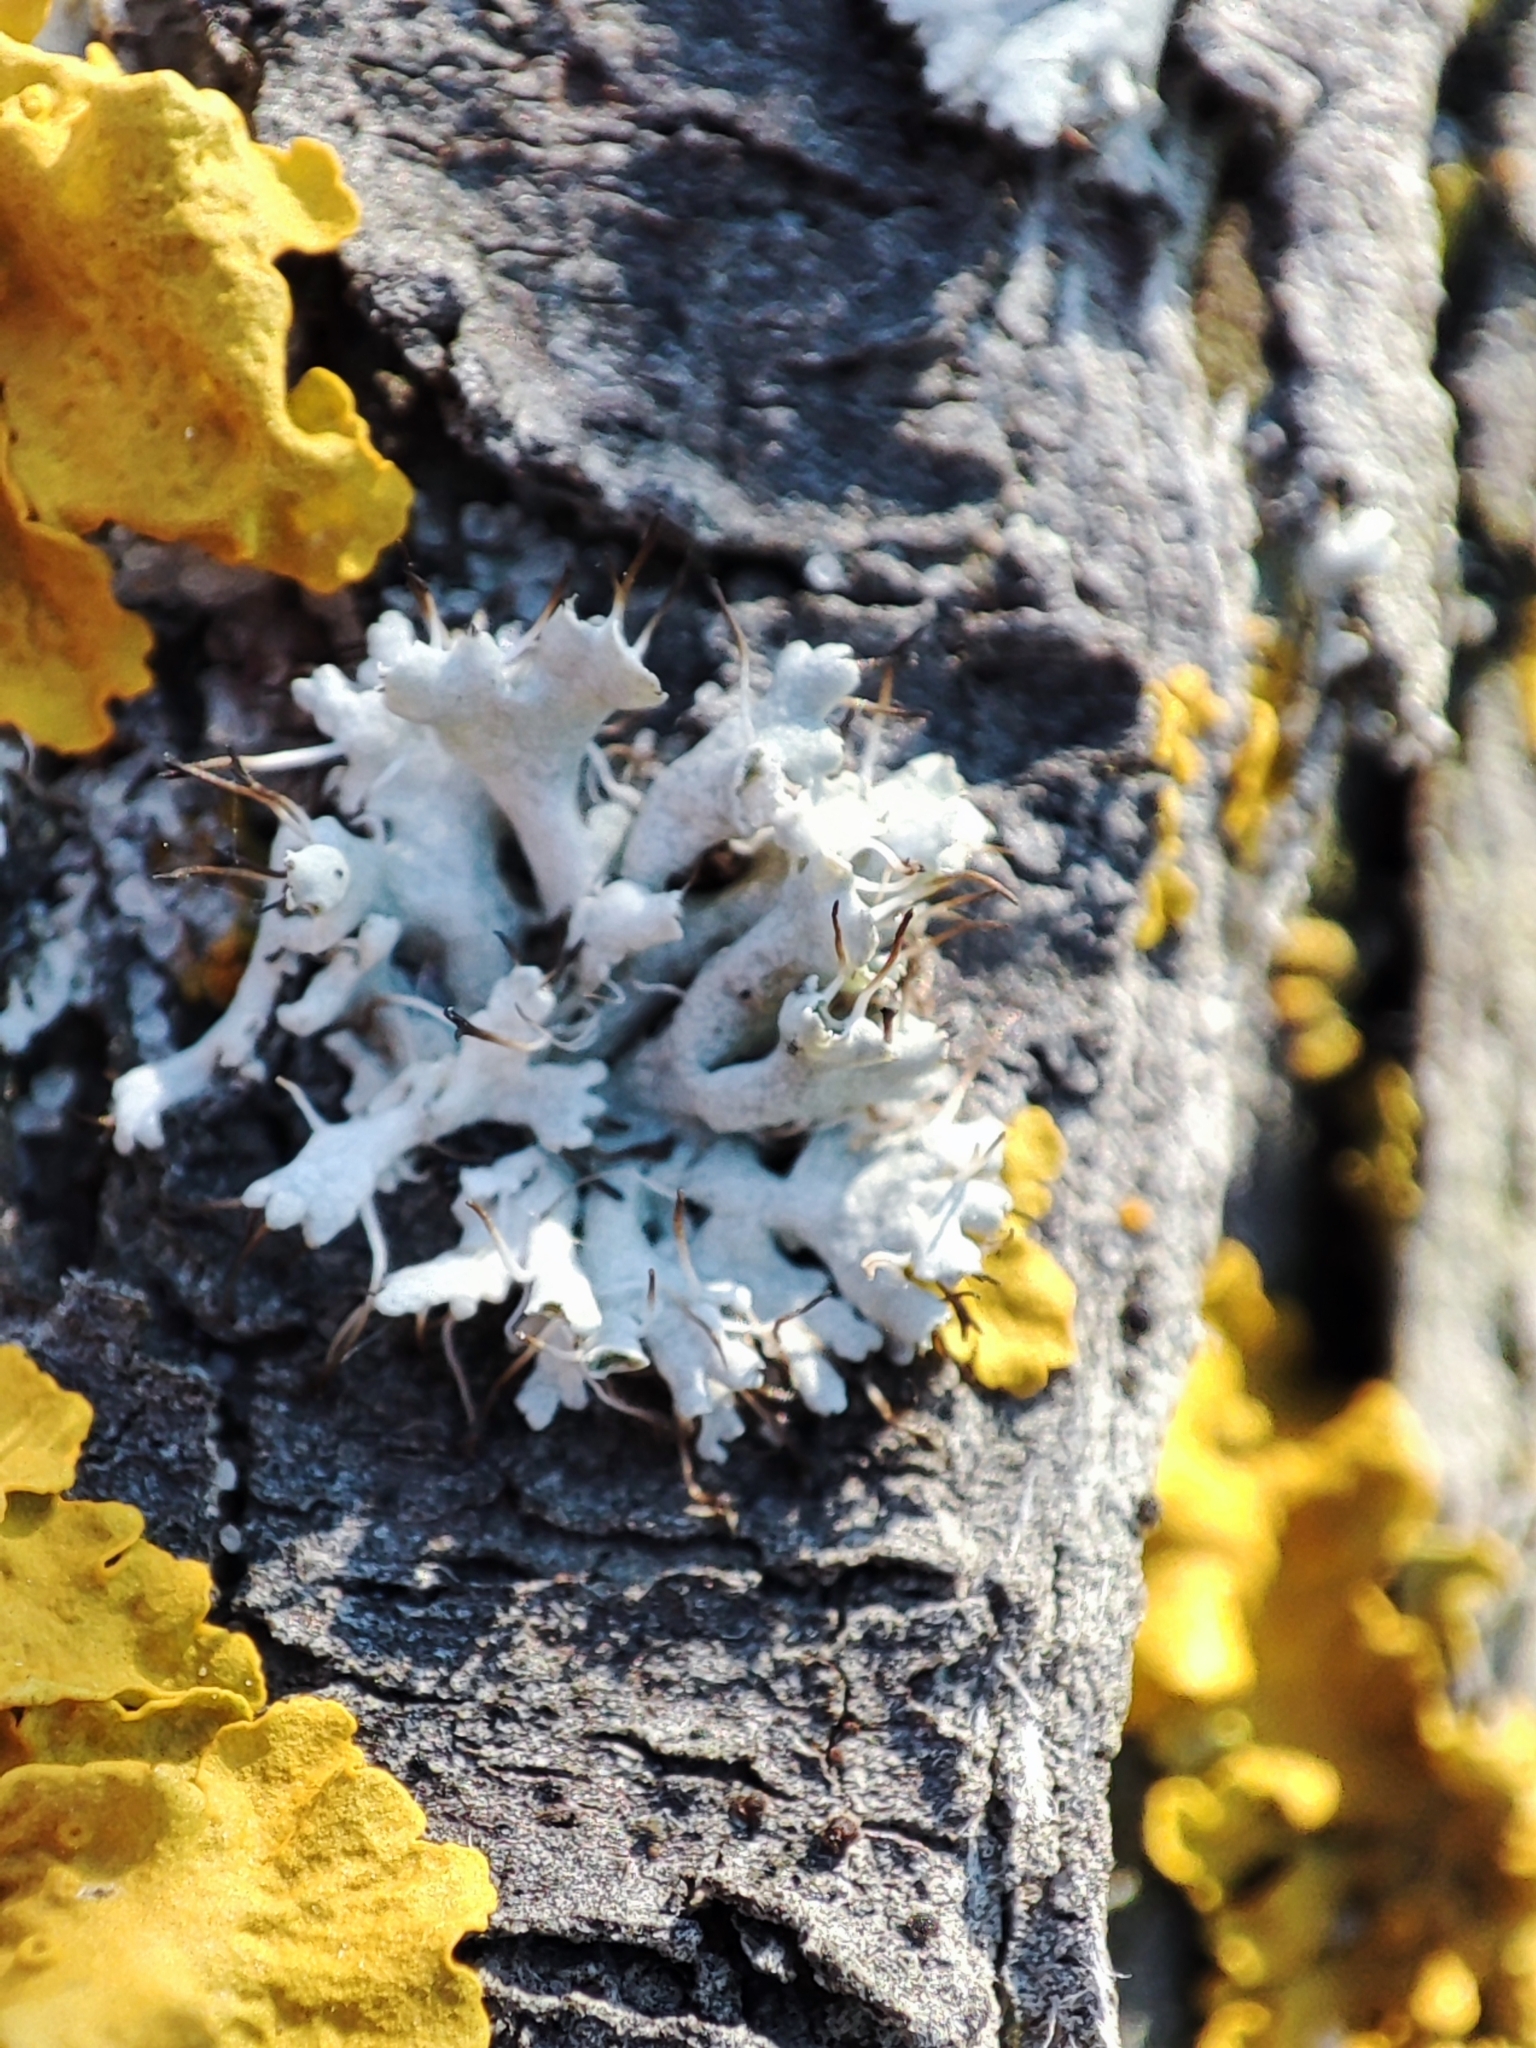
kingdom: Fungi
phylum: Ascomycota
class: Lecanoromycetes
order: Caliciales
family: Physciaceae
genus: Physcia
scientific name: Physcia adscendens
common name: Hooded rosette lichen
